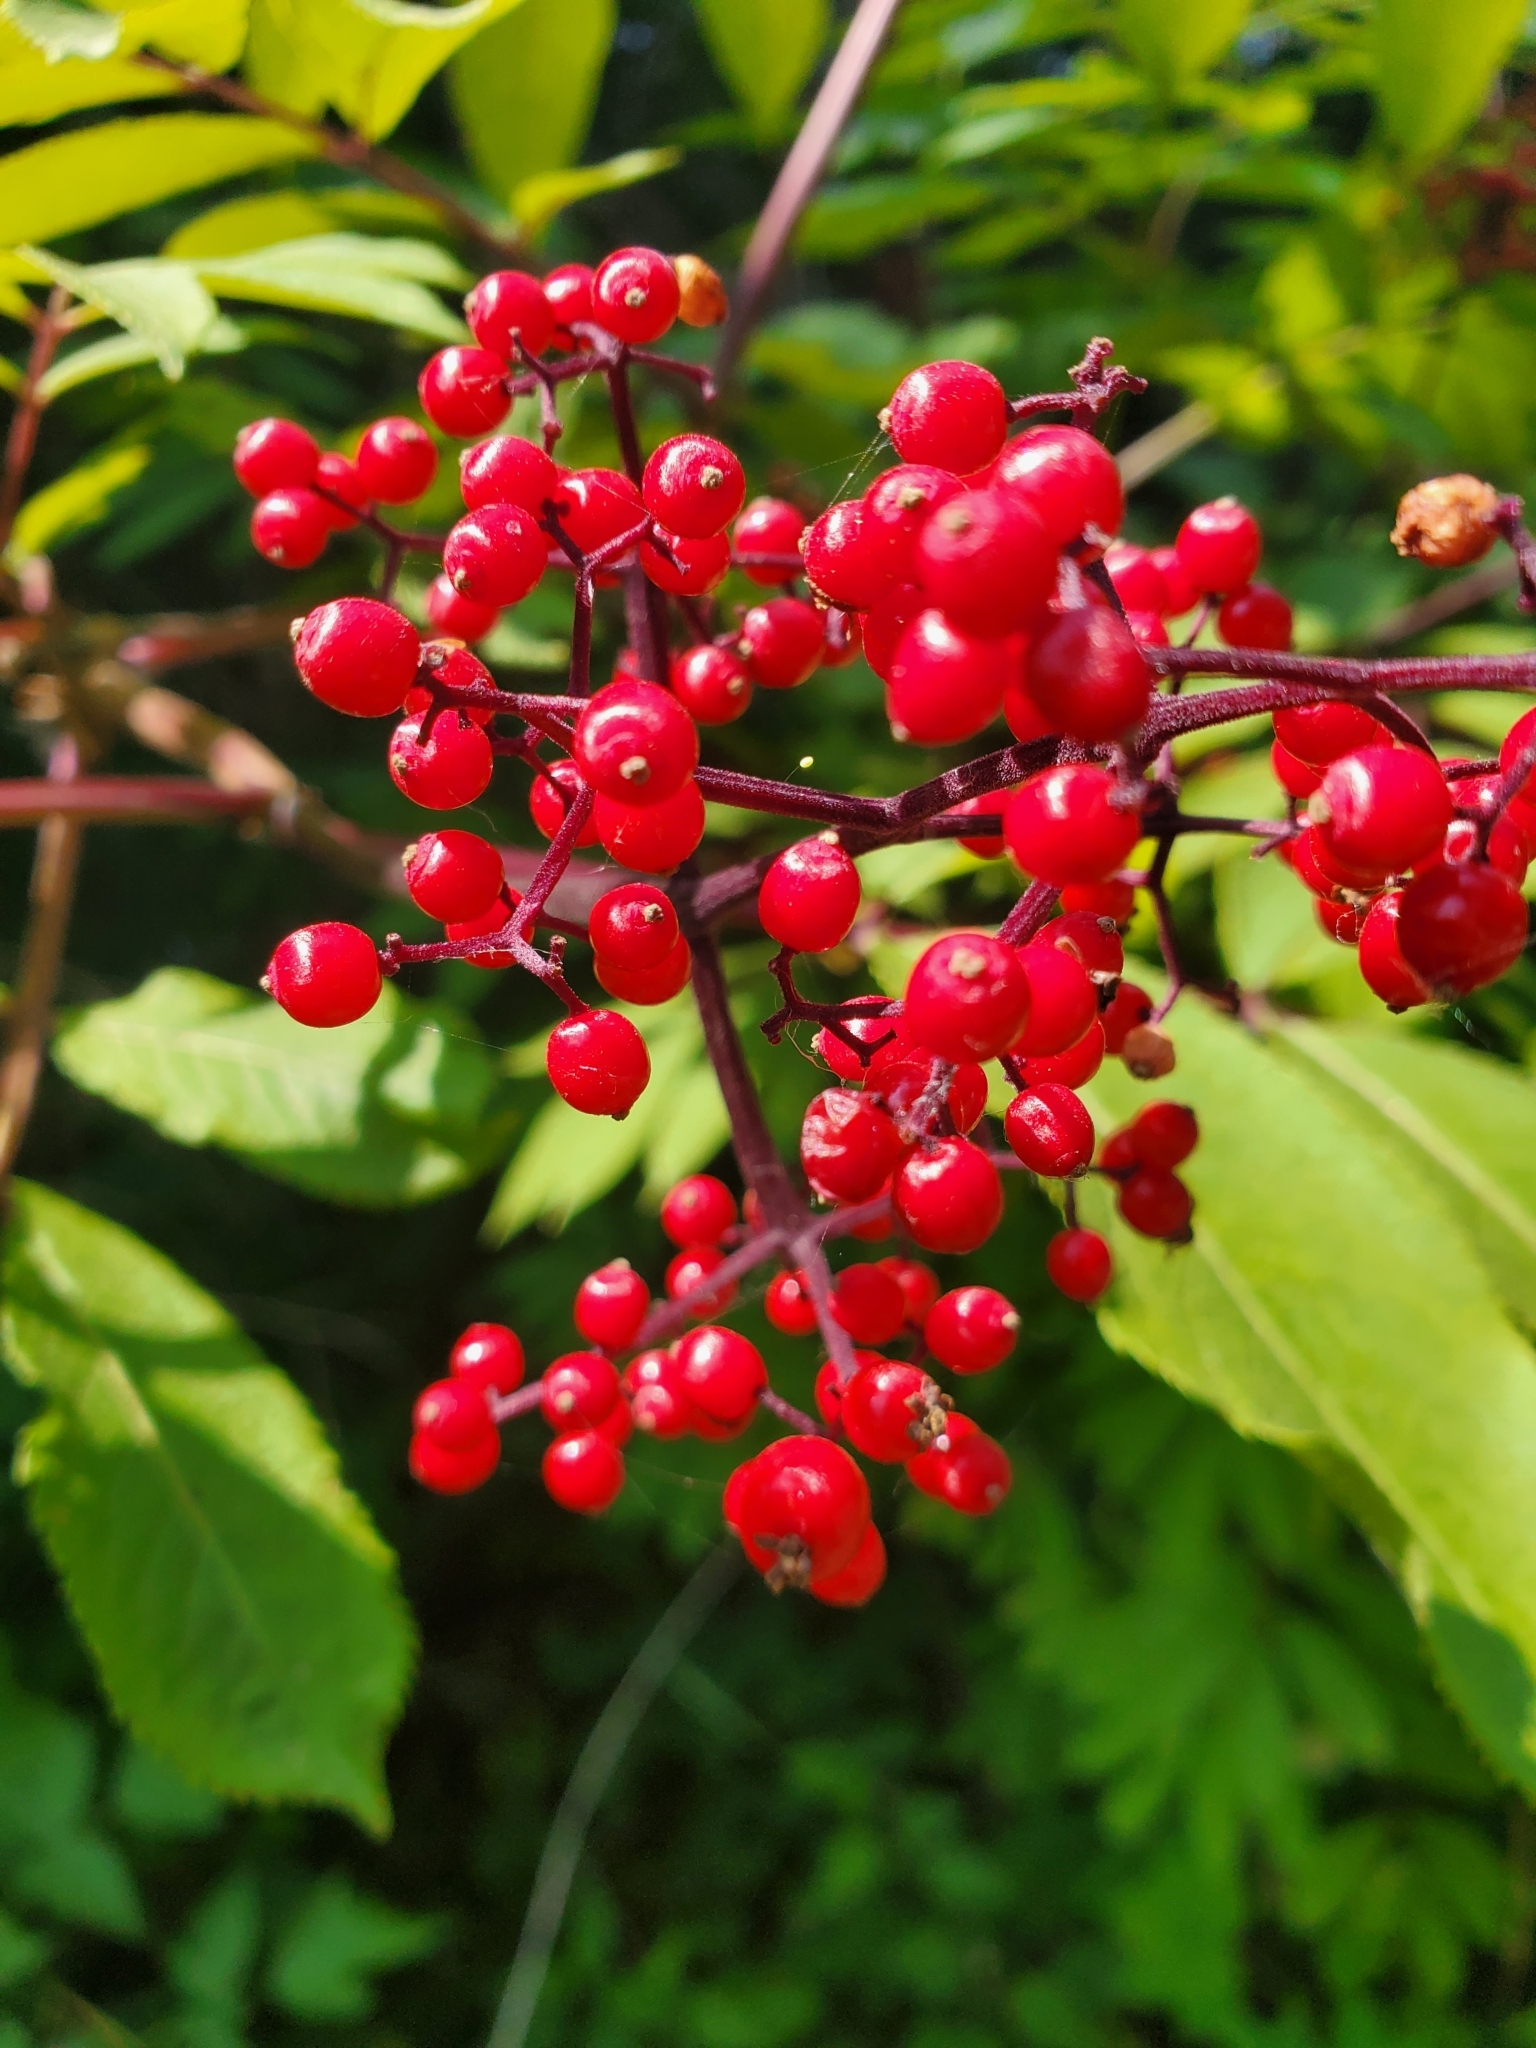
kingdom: Plantae
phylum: Tracheophyta
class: Magnoliopsida
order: Dipsacales
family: Viburnaceae
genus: Sambucus
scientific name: Sambucus racemosa
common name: Red-berried elder
